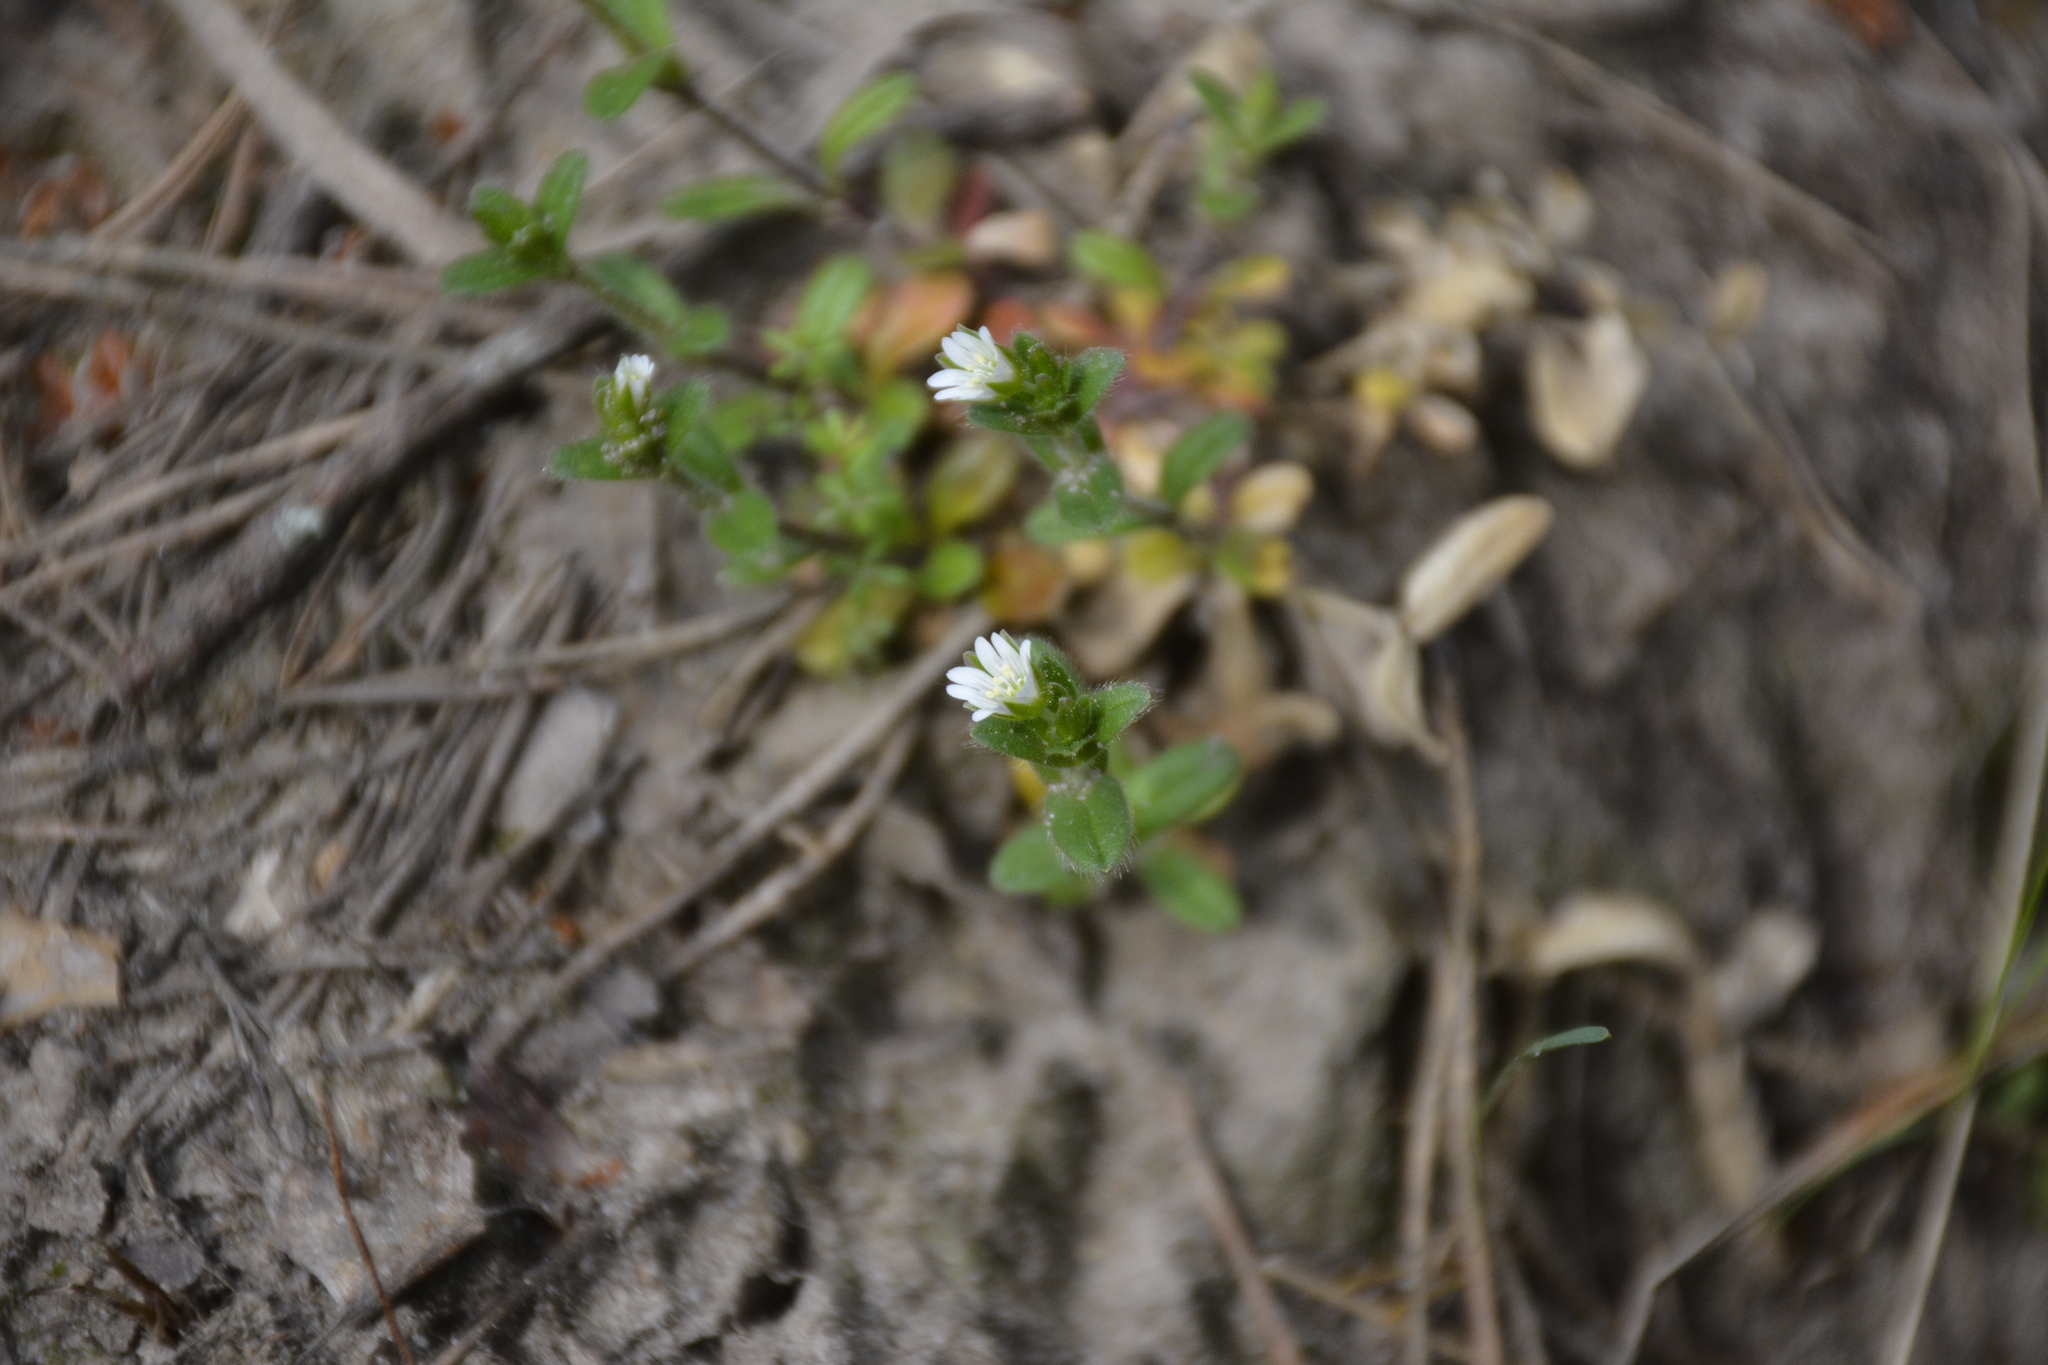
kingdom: Plantae
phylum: Tracheophyta
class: Magnoliopsida
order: Caryophyllales
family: Caryophyllaceae
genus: Cerastium
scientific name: Cerastium holosteoides
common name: Big chickweed
